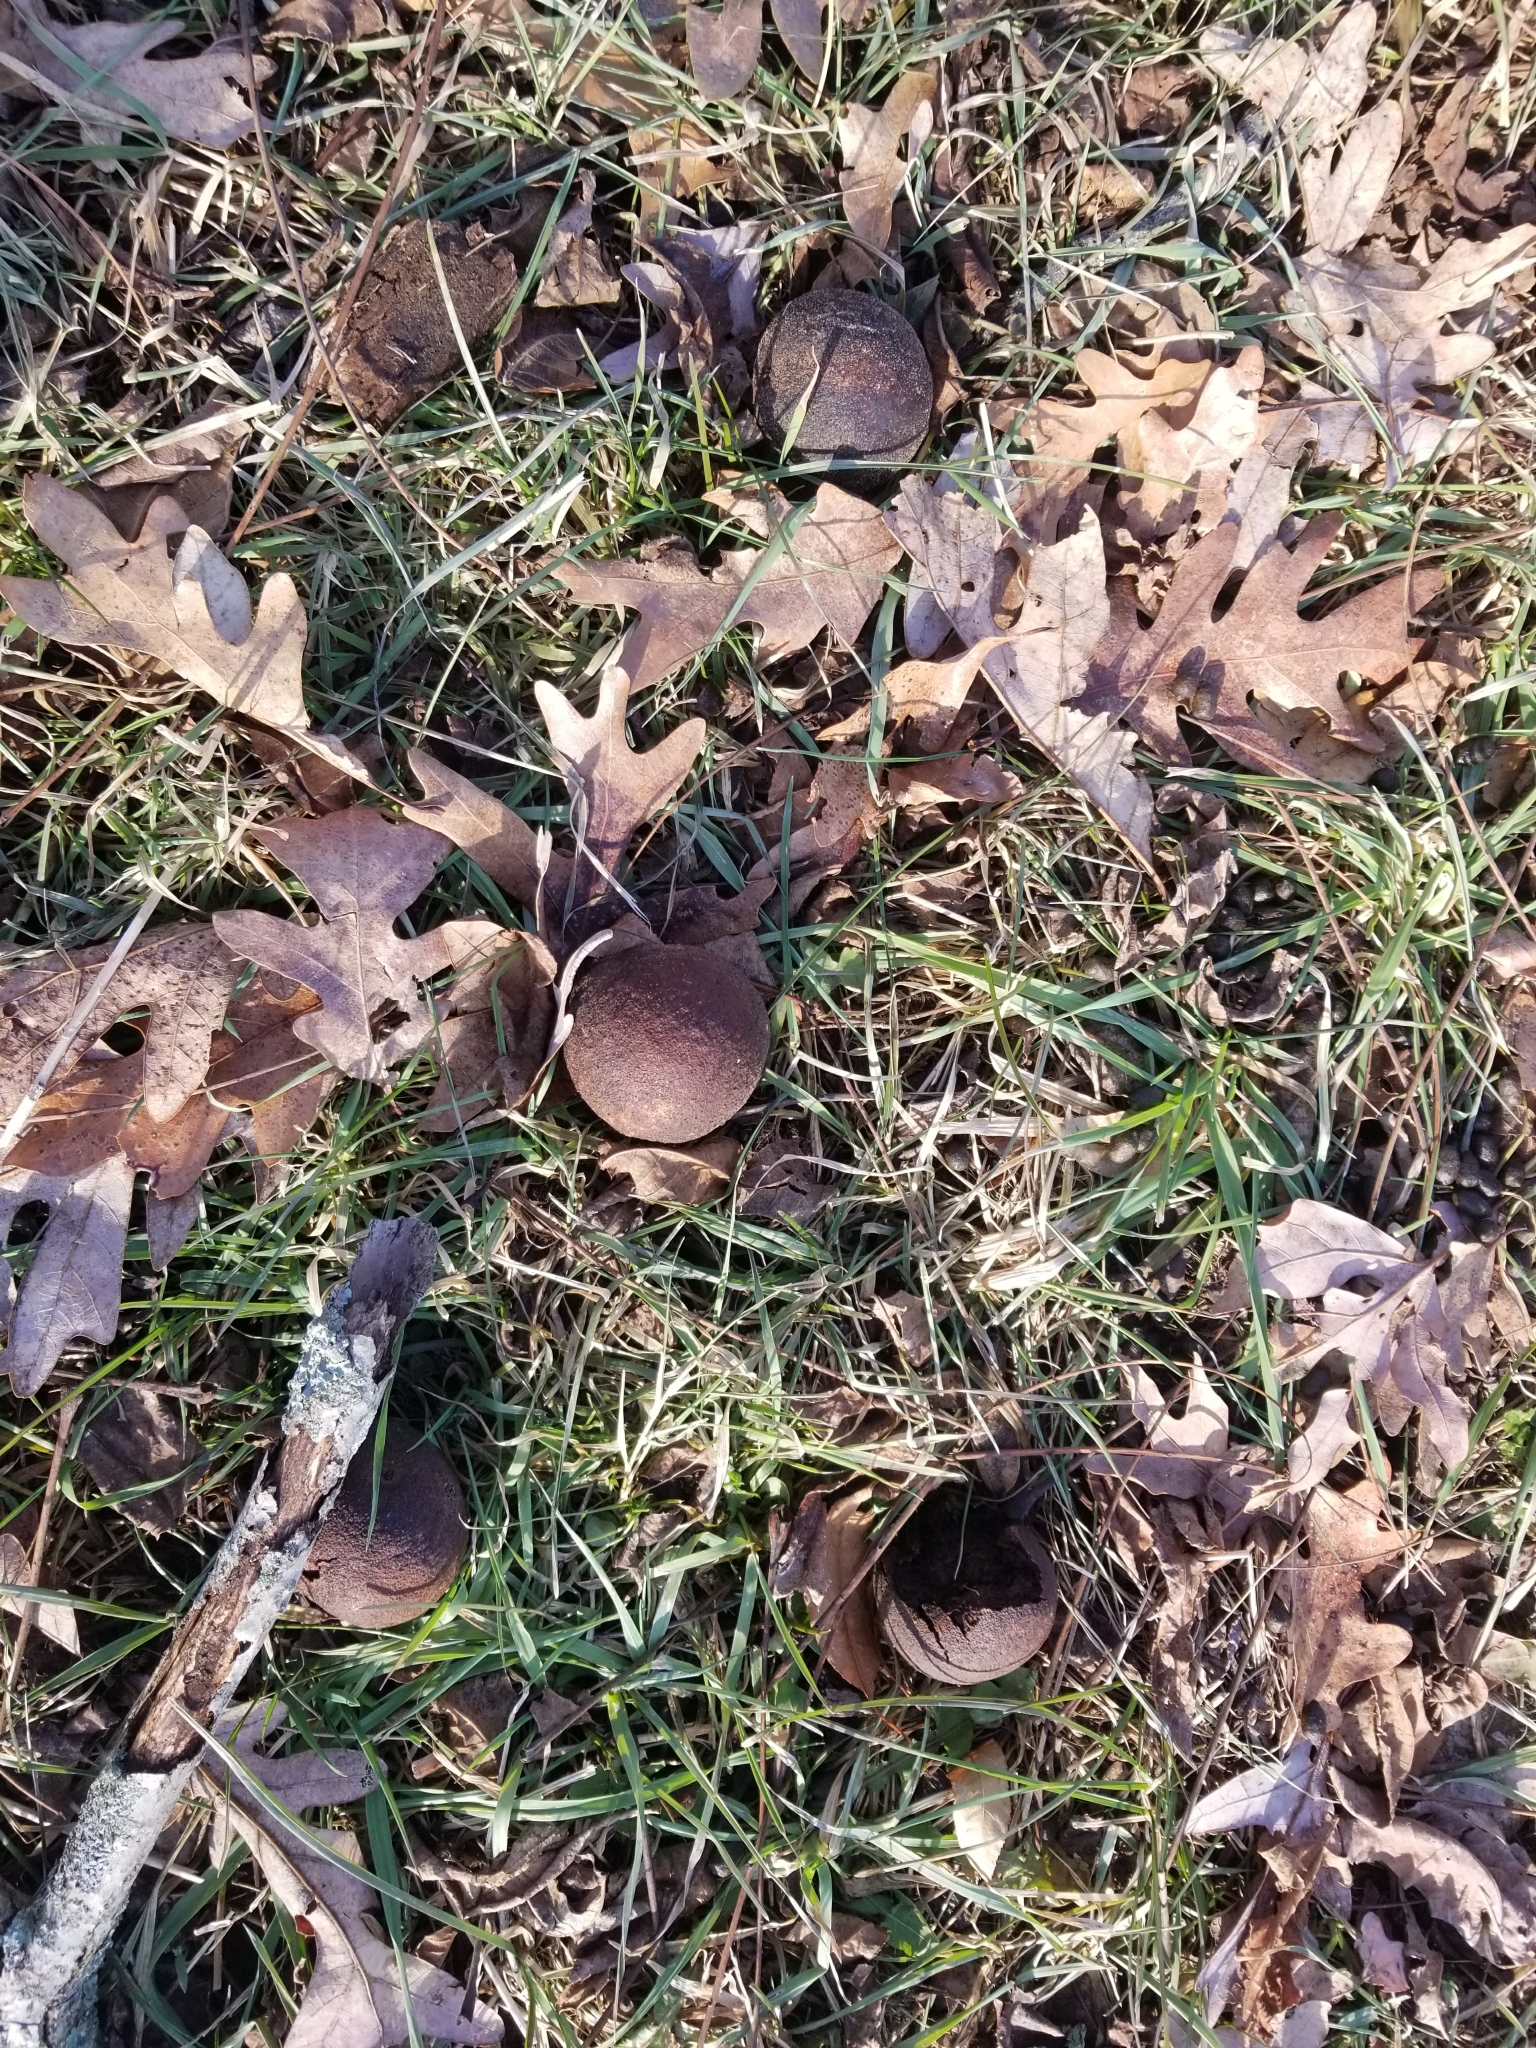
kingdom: Plantae
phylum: Tracheophyta
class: Magnoliopsida
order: Fagales
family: Juglandaceae
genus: Juglans
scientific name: Juglans nigra
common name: Black walnut
